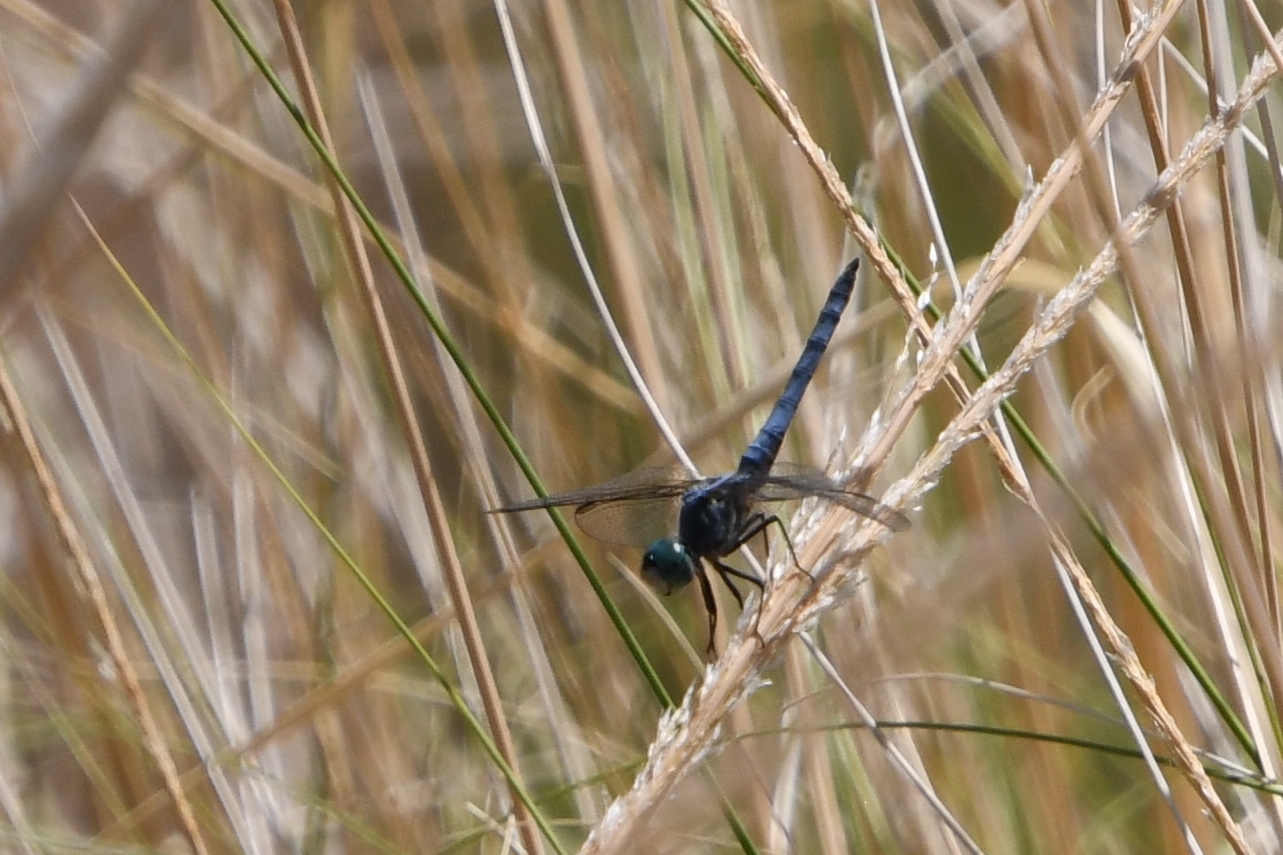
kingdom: Animalia
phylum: Arthropoda
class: Insecta
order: Odonata
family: Libellulidae
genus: Pachydiplax
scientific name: Pachydiplax longipennis
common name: Blue dasher
